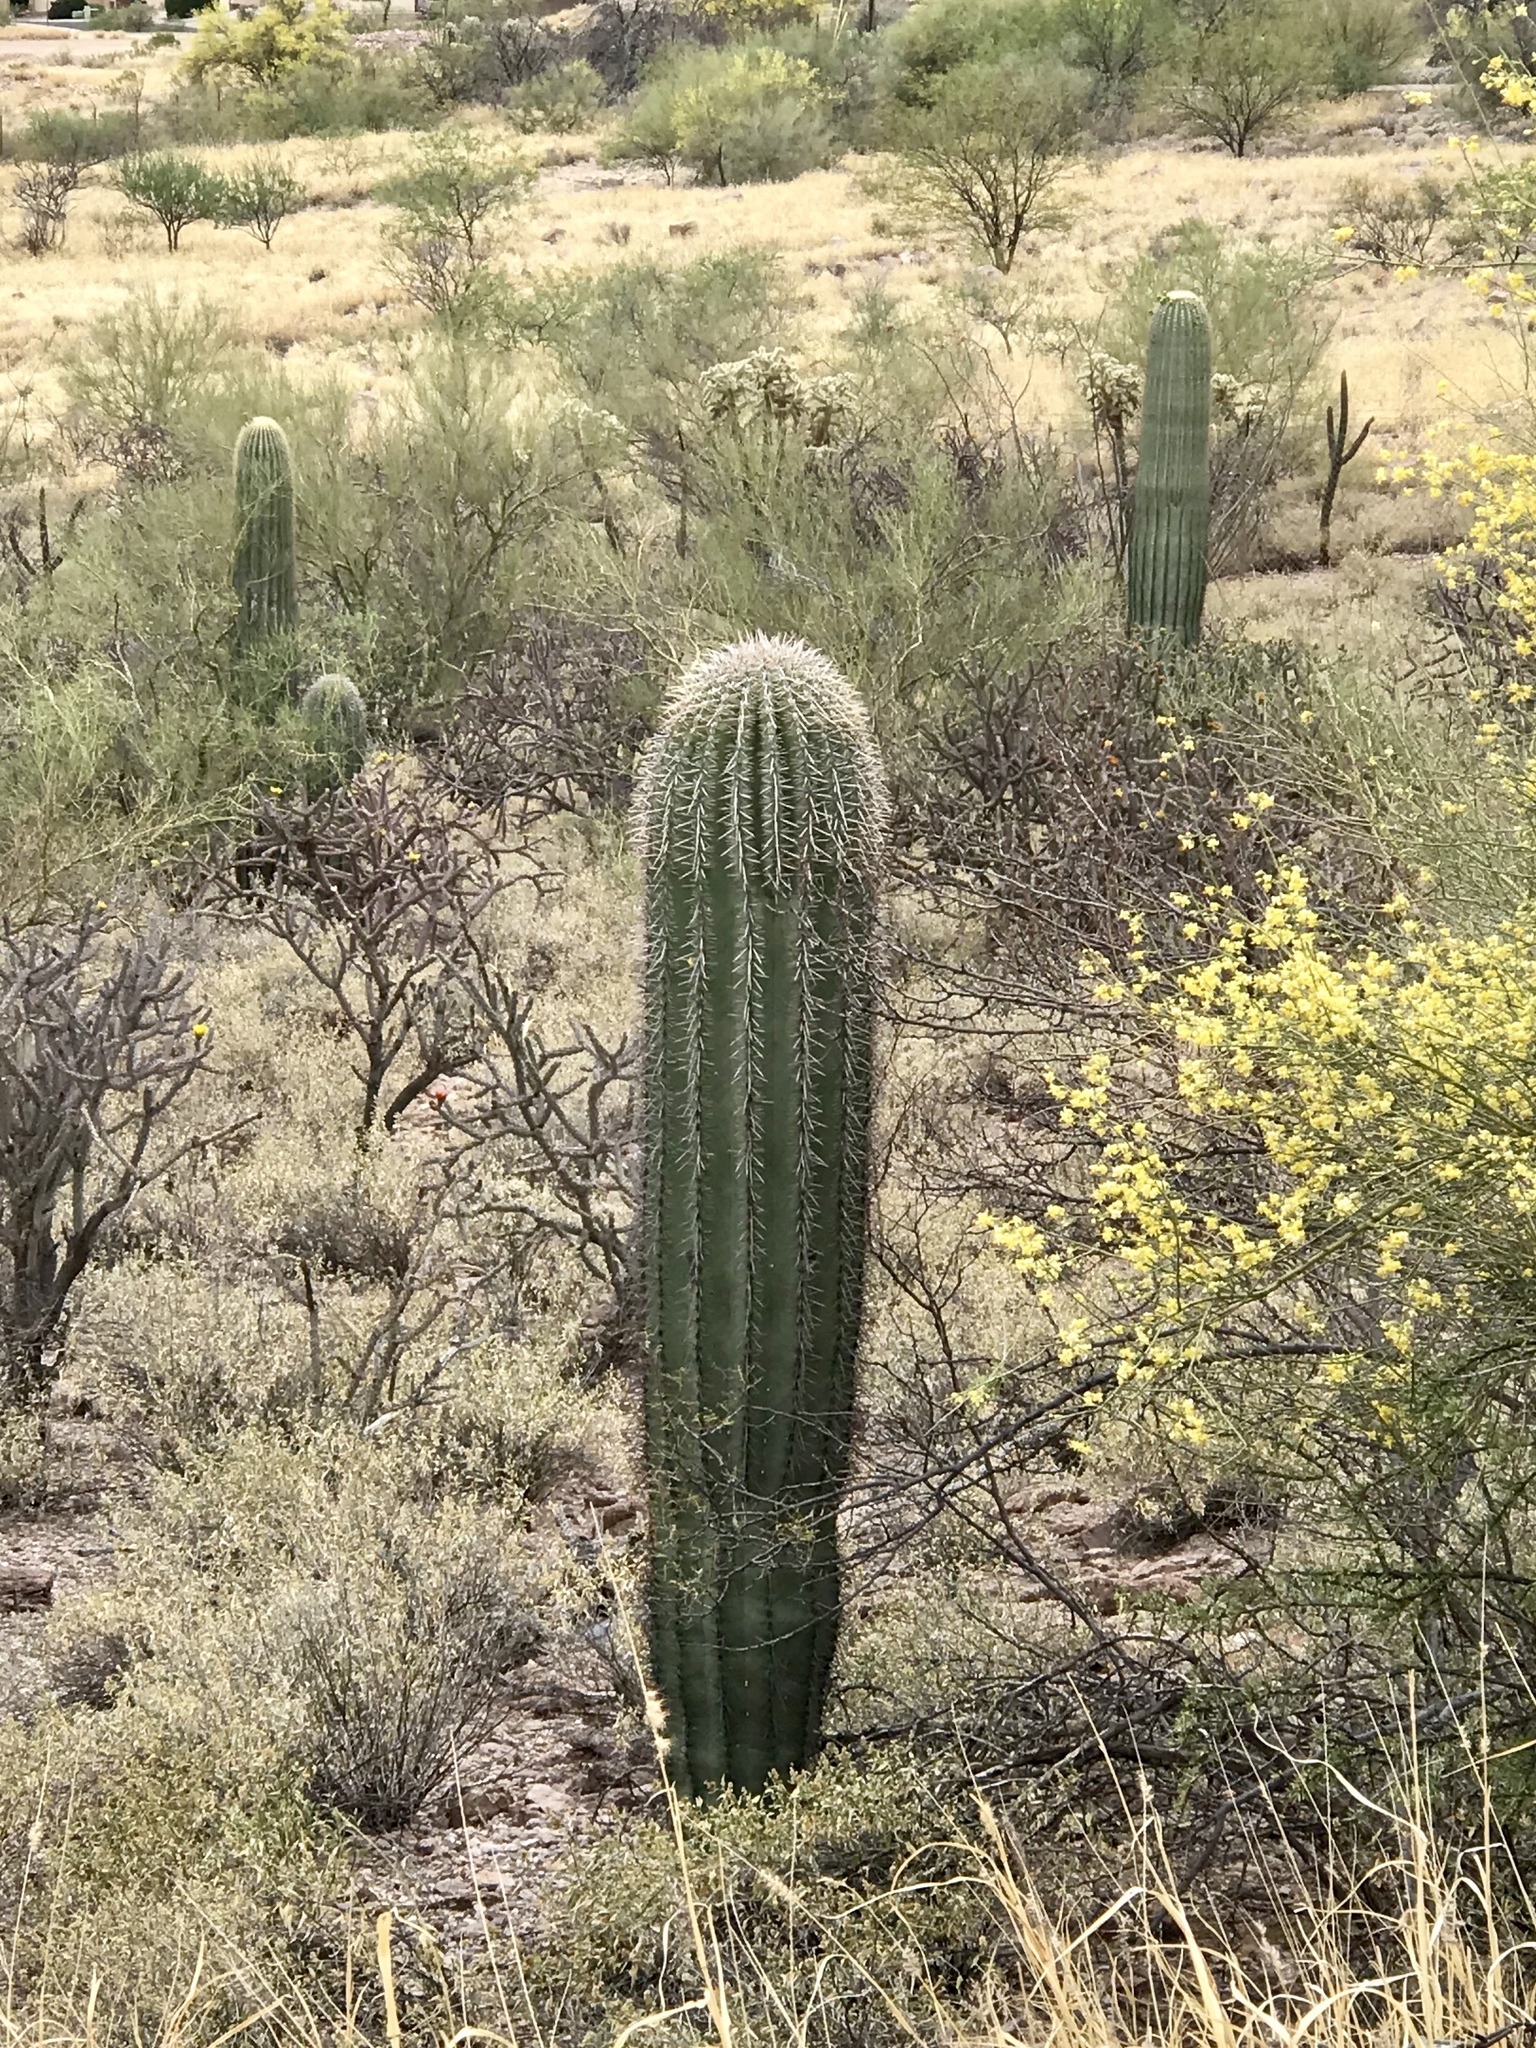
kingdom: Plantae
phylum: Tracheophyta
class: Magnoliopsida
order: Caryophyllales
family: Cactaceae
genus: Carnegiea
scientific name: Carnegiea gigantea
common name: Saguaro
